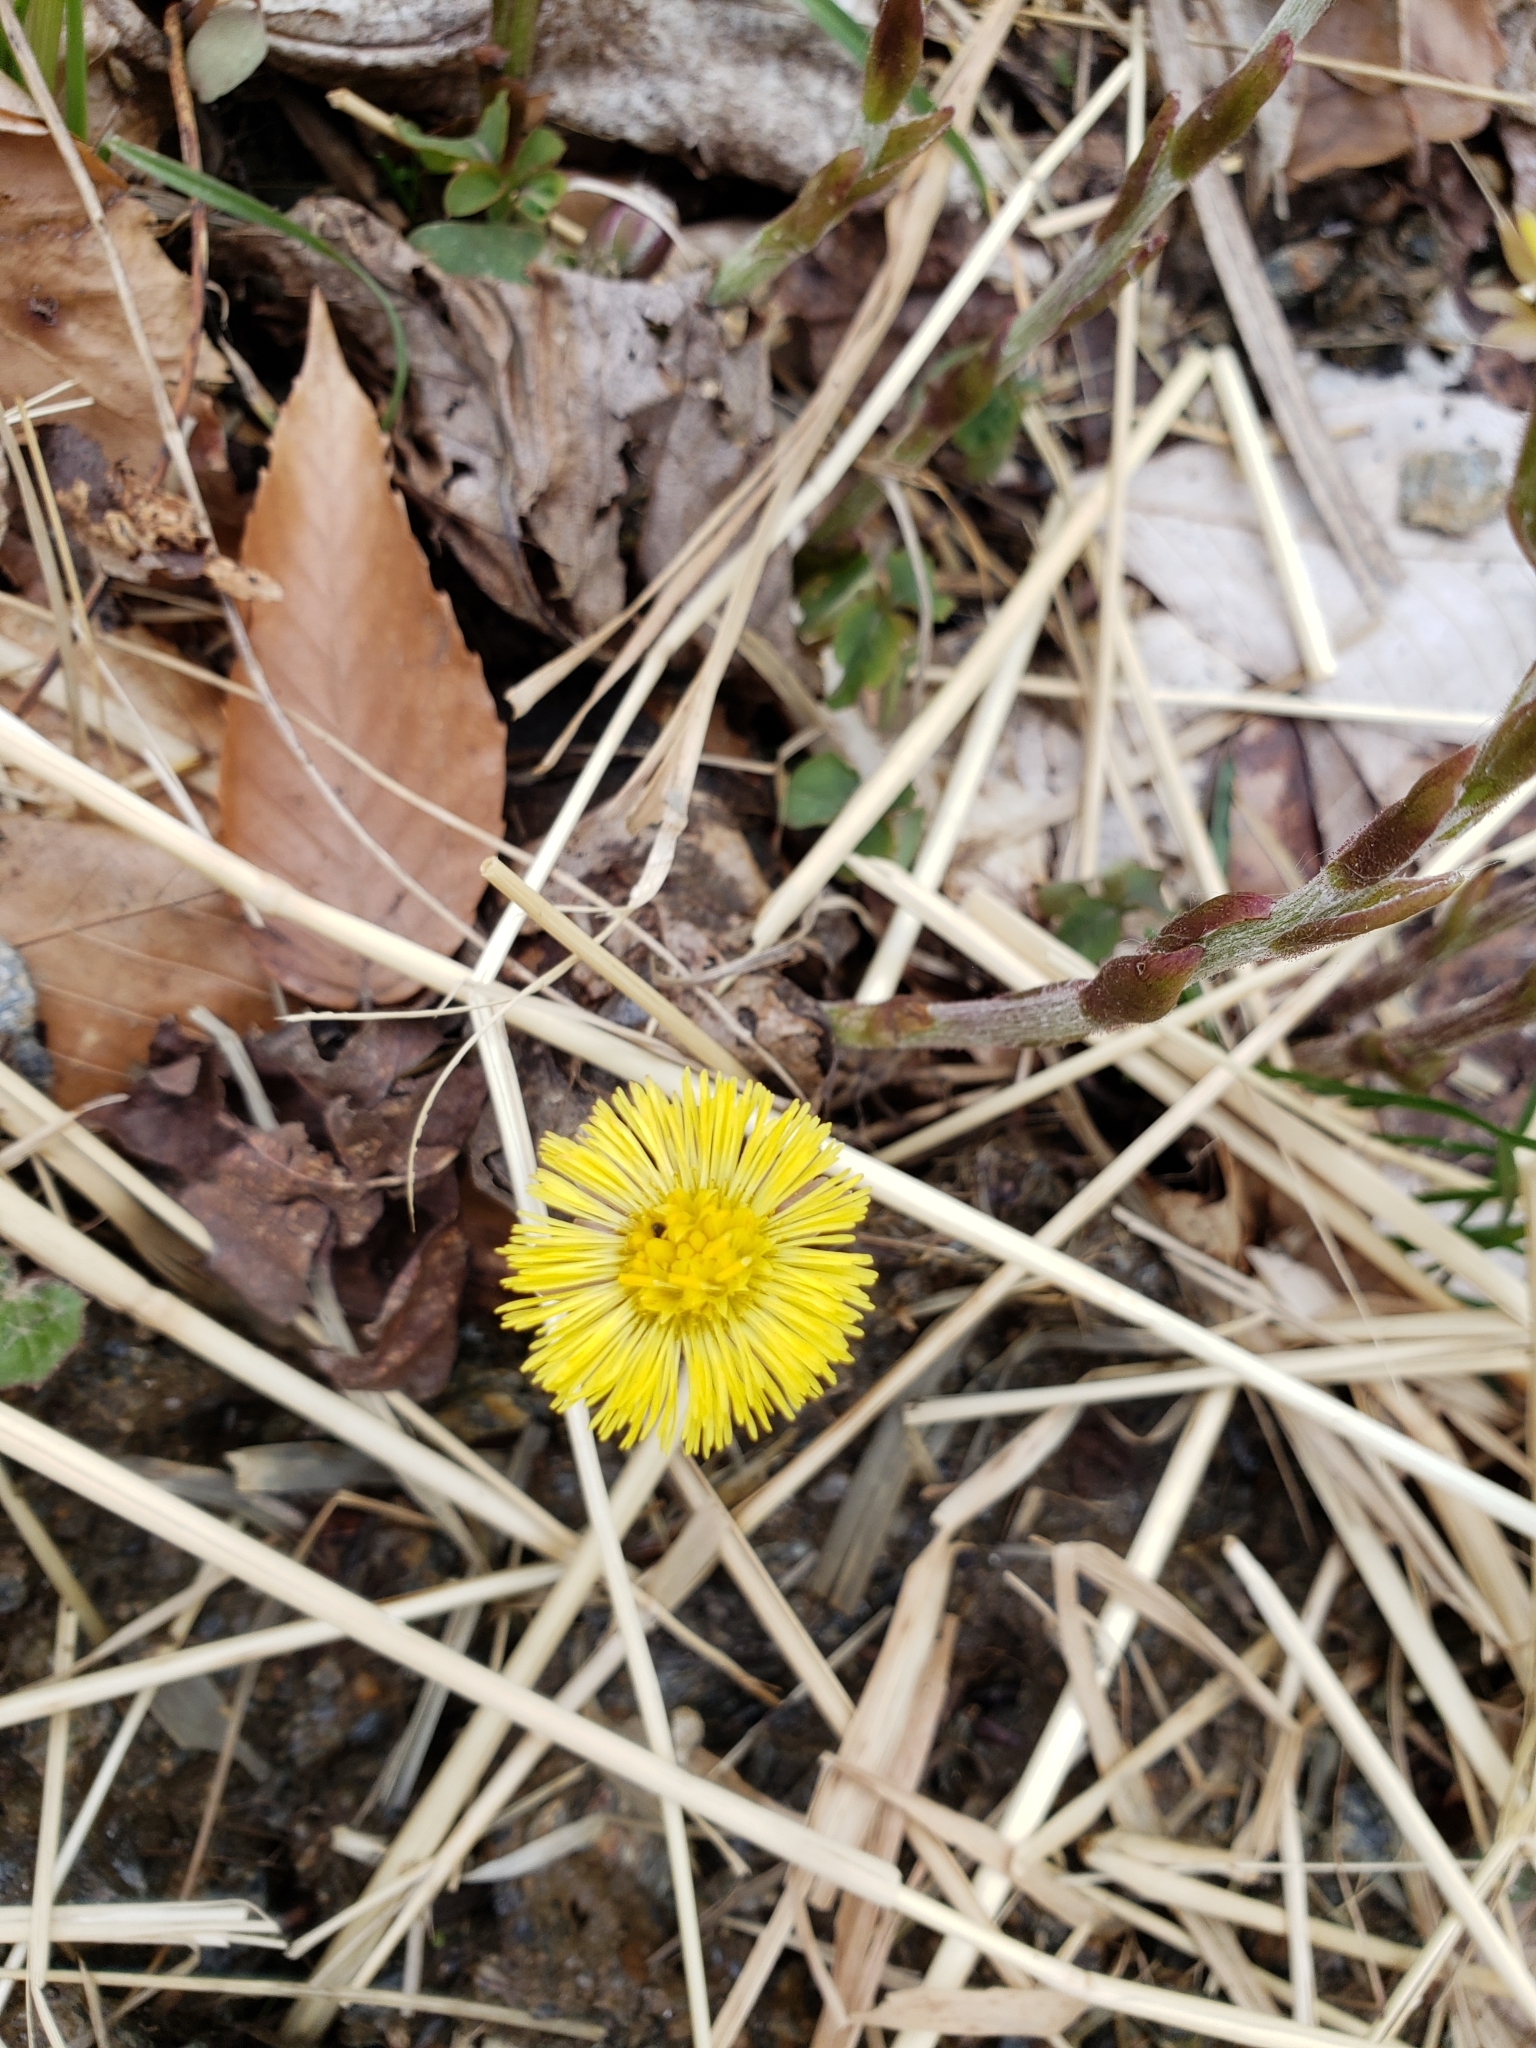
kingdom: Plantae
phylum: Tracheophyta
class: Magnoliopsida
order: Asterales
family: Asteraceae
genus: Tussilago
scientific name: Tussilago farfara
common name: Coltsfoot
